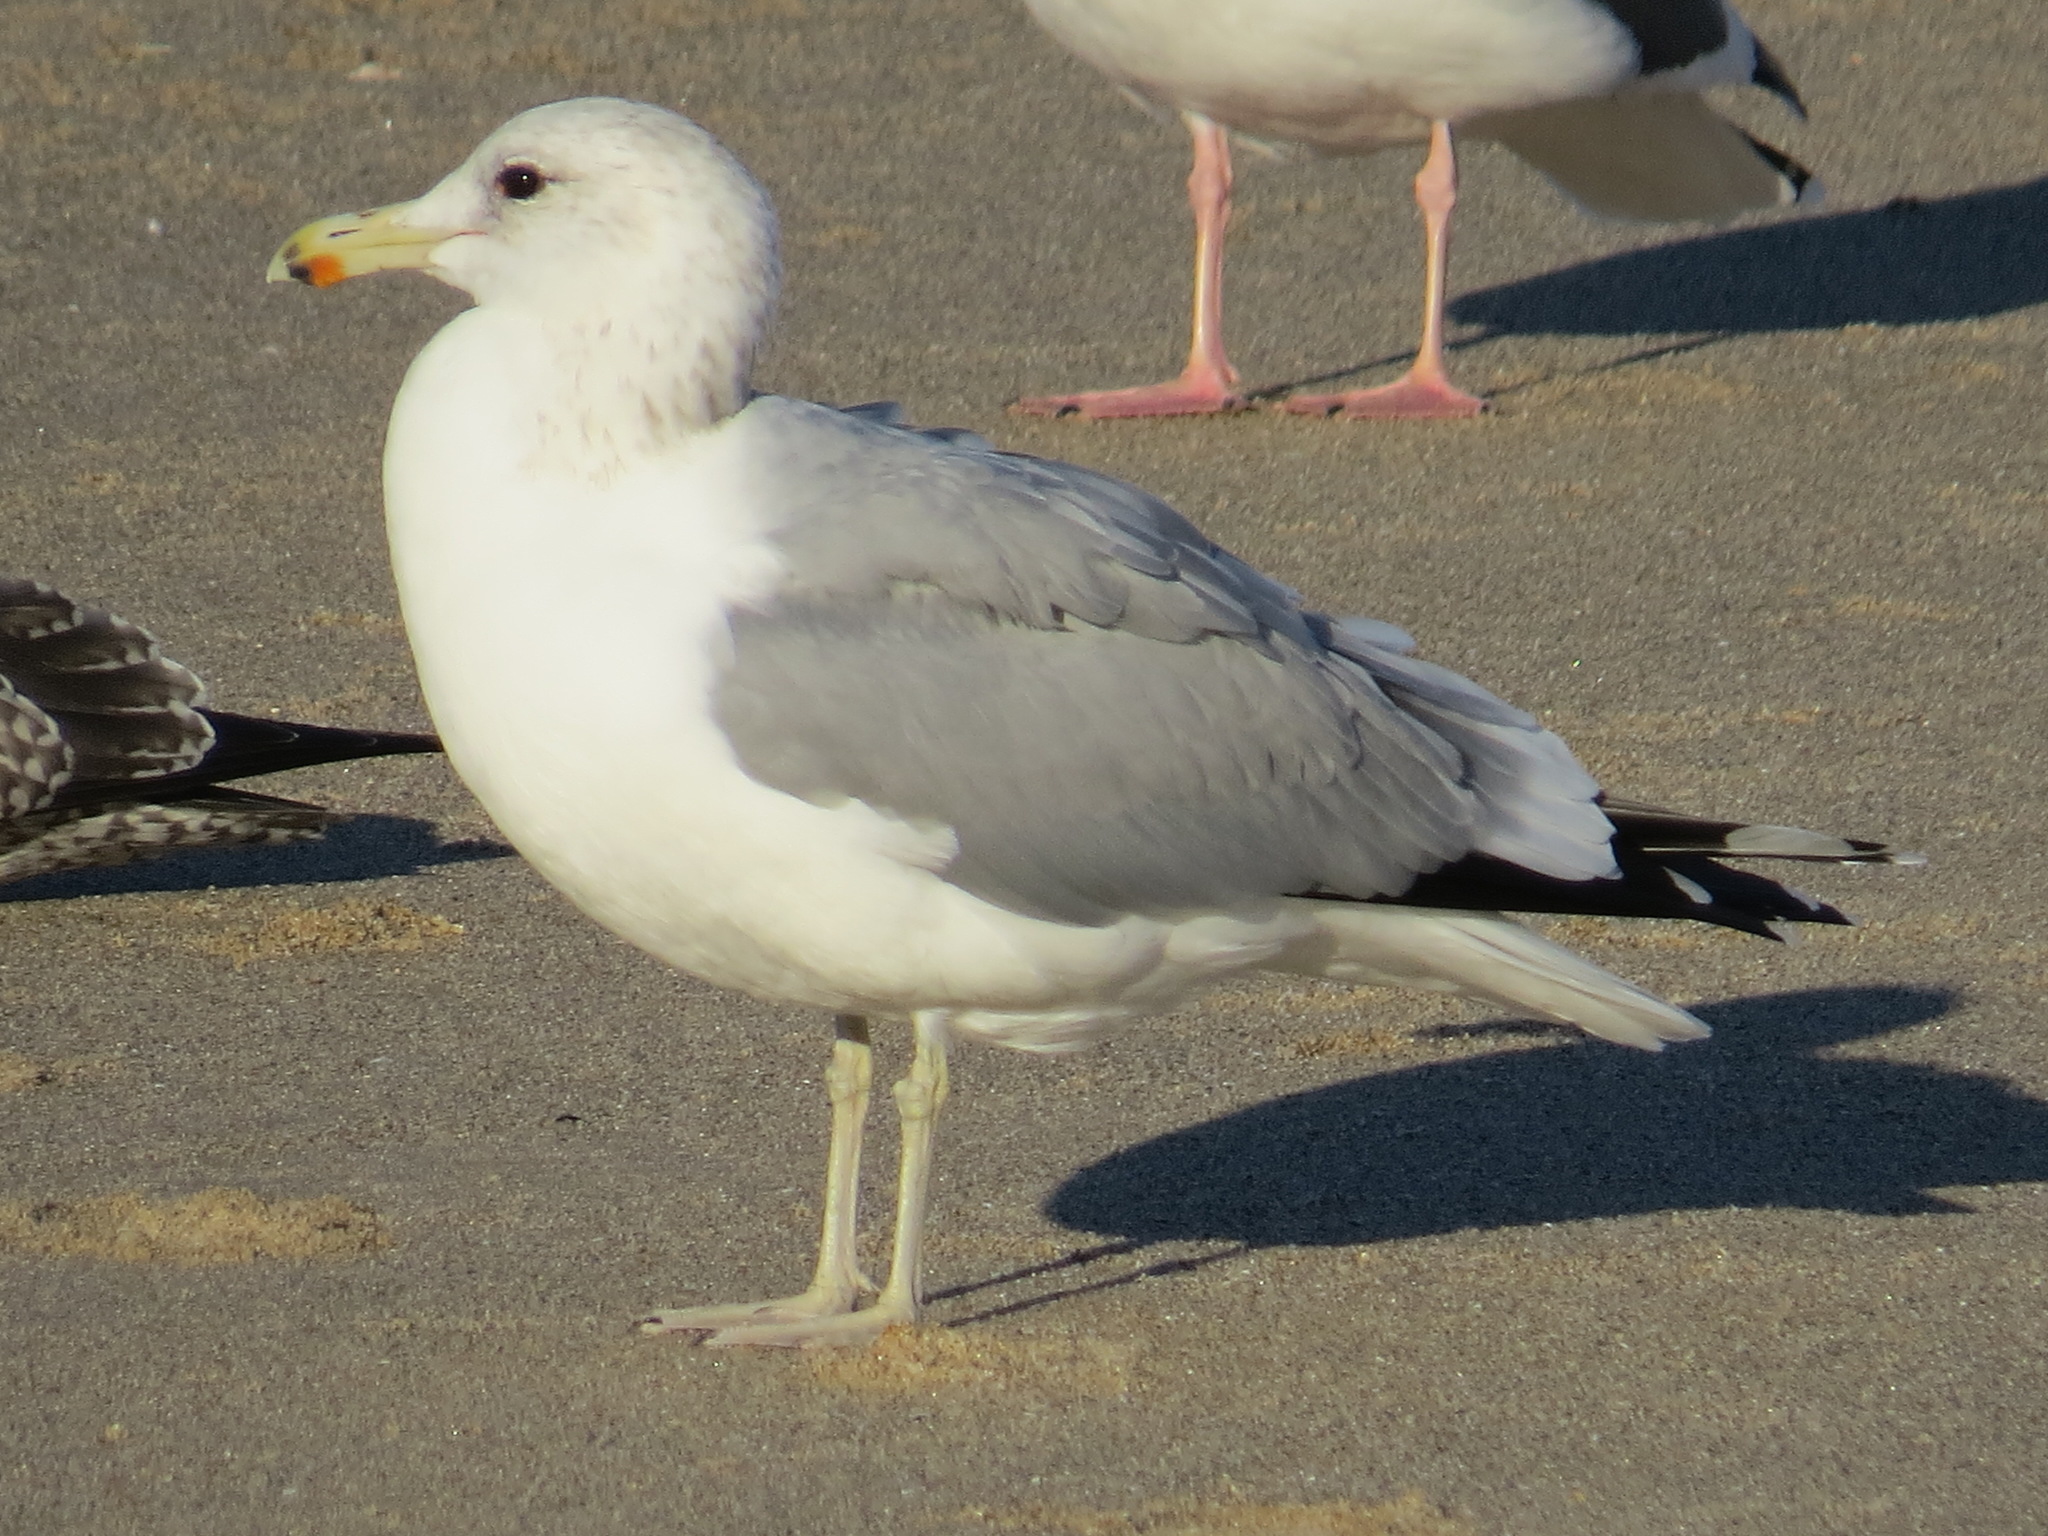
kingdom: Animalia
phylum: Chordata
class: Aves
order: Charadriiformes
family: Laridae
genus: Larus
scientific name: Larus californicus
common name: California gull
